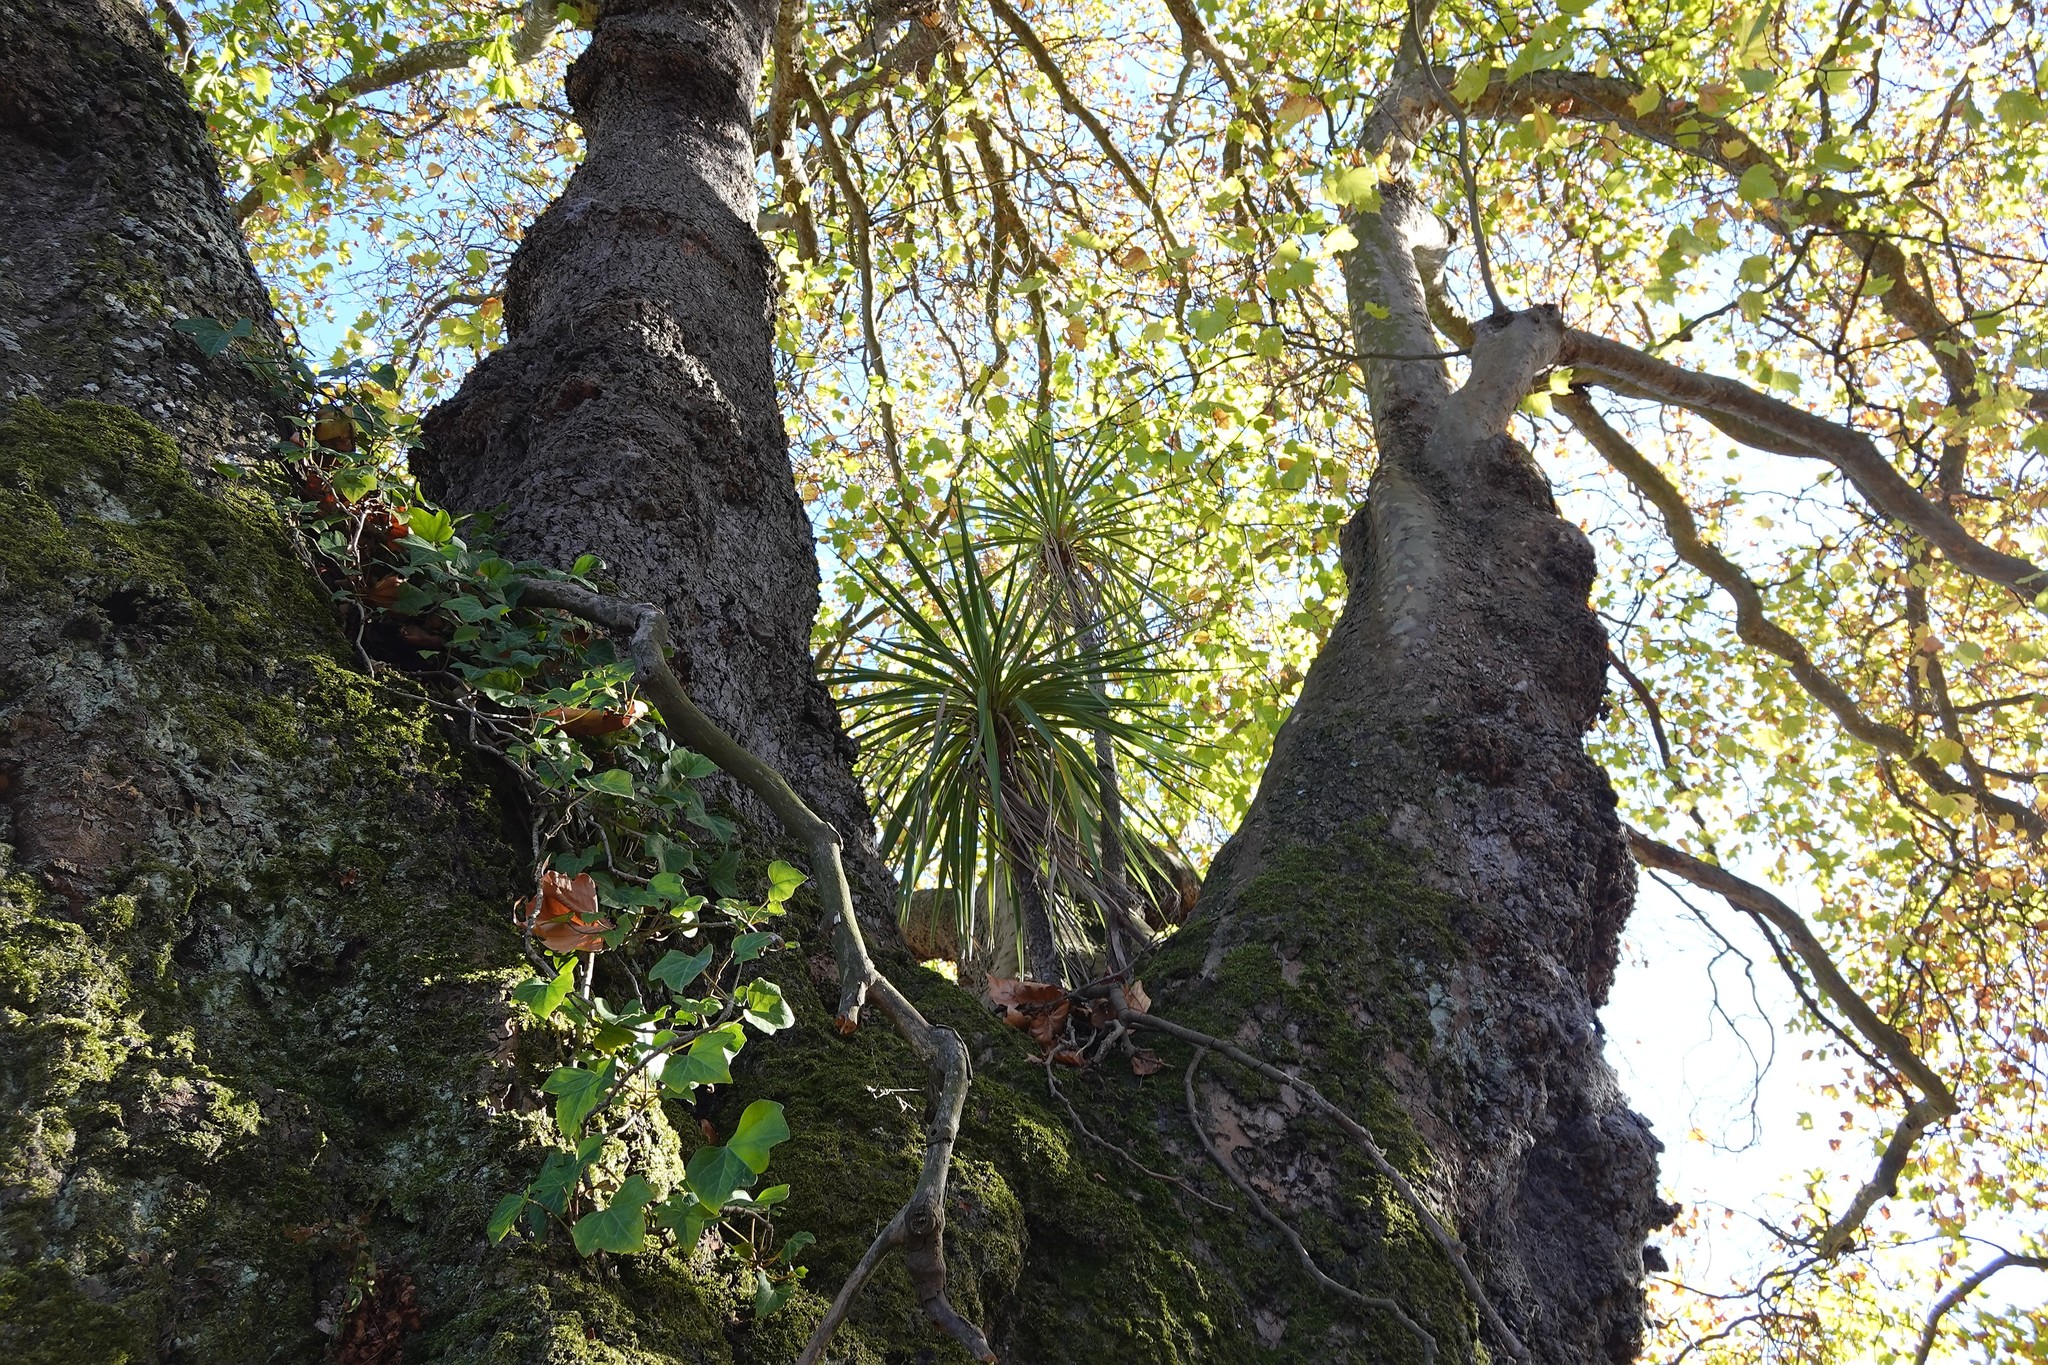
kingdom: Plantae
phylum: Tracheophyta
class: Liliopsida
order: Asparagales
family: Asparagaceae
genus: Cordyline
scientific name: Cordyline australis
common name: Cabbage-palm
